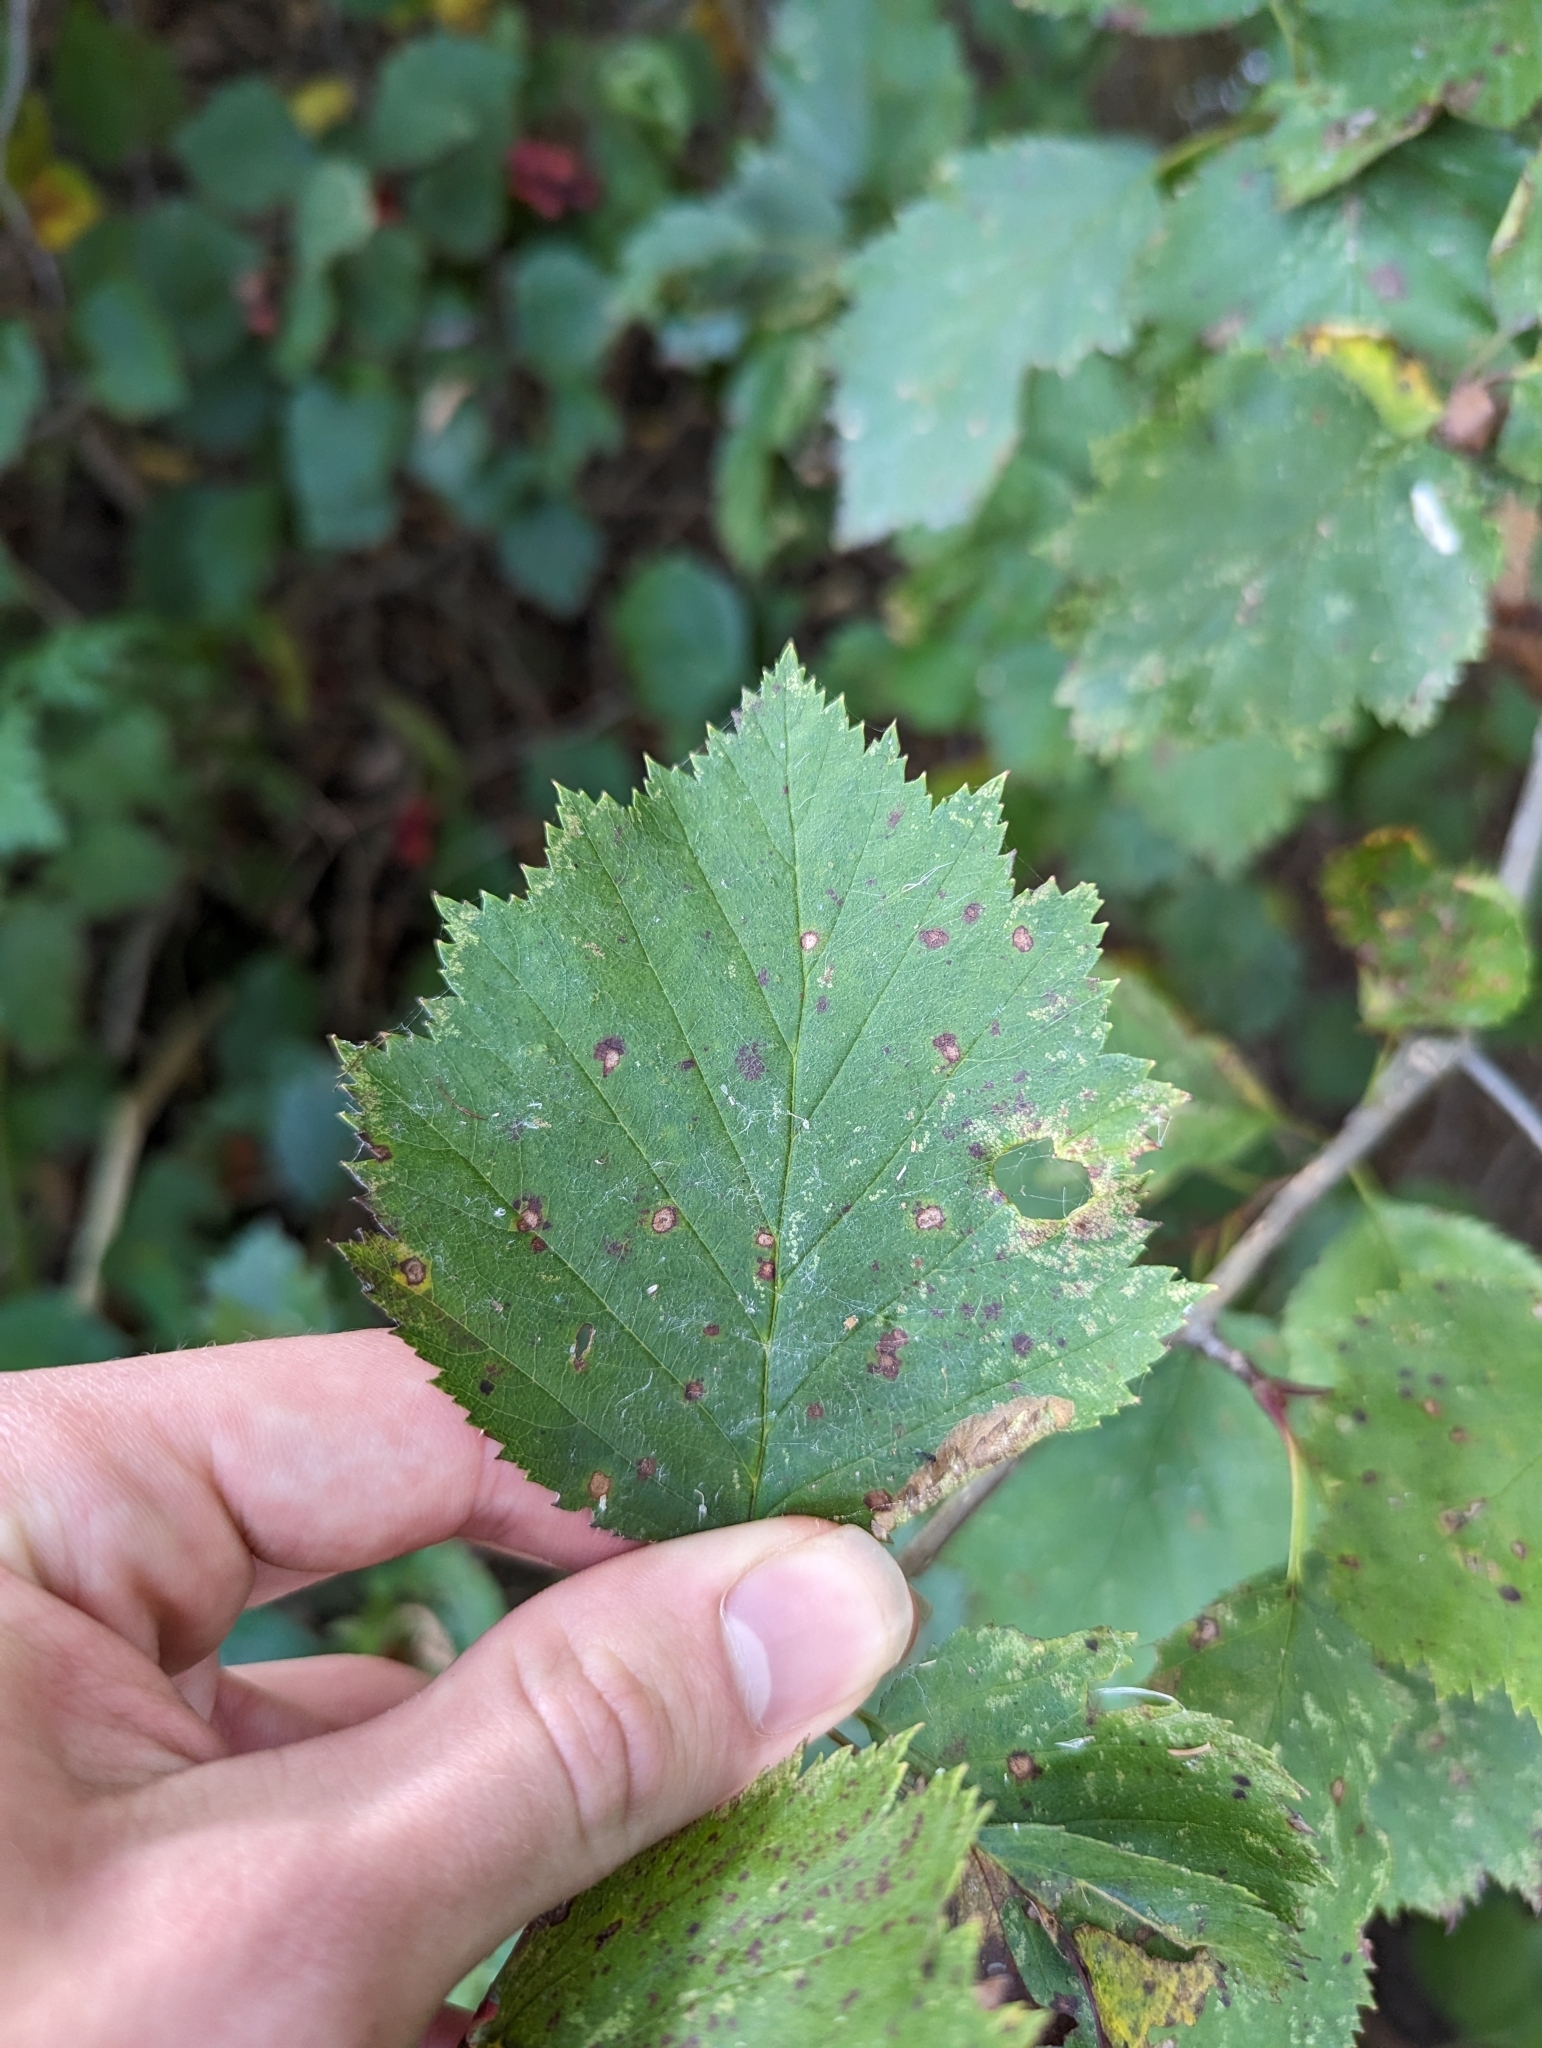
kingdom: Plantae
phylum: Tracheophyta
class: Magnoliopsida
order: Rosales
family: Rosaceae
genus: Crataegus
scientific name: Crataegus
